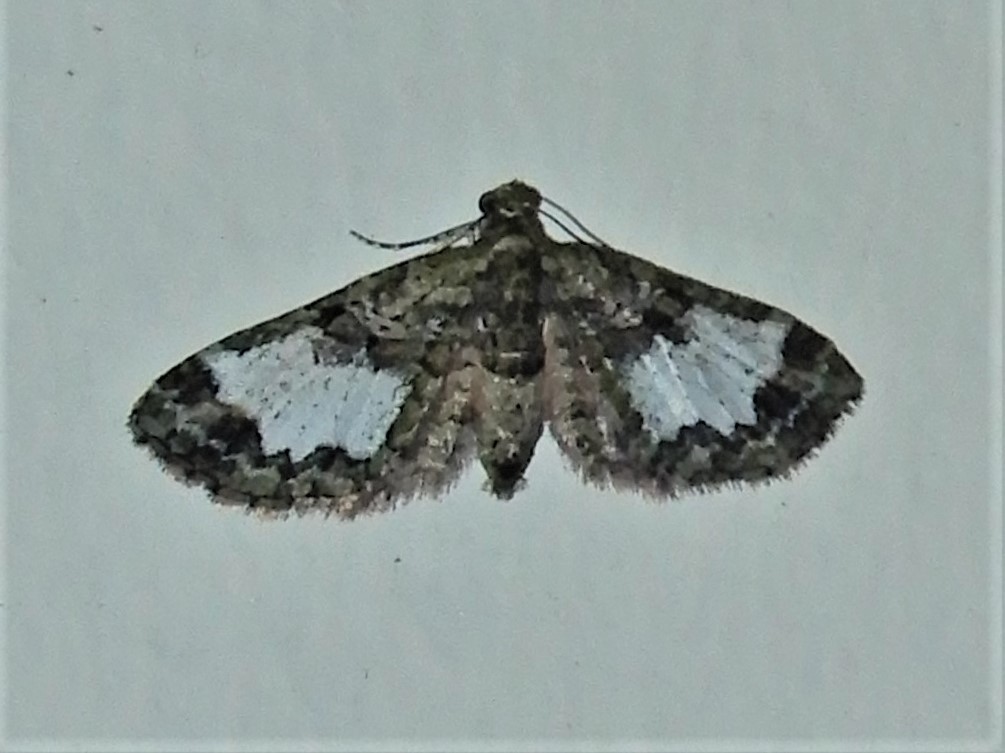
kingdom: Animalia
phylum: Arthropoda
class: Insecta
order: Lepidoptera
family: Geometridae
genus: Idaea
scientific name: Idaea mutanda
